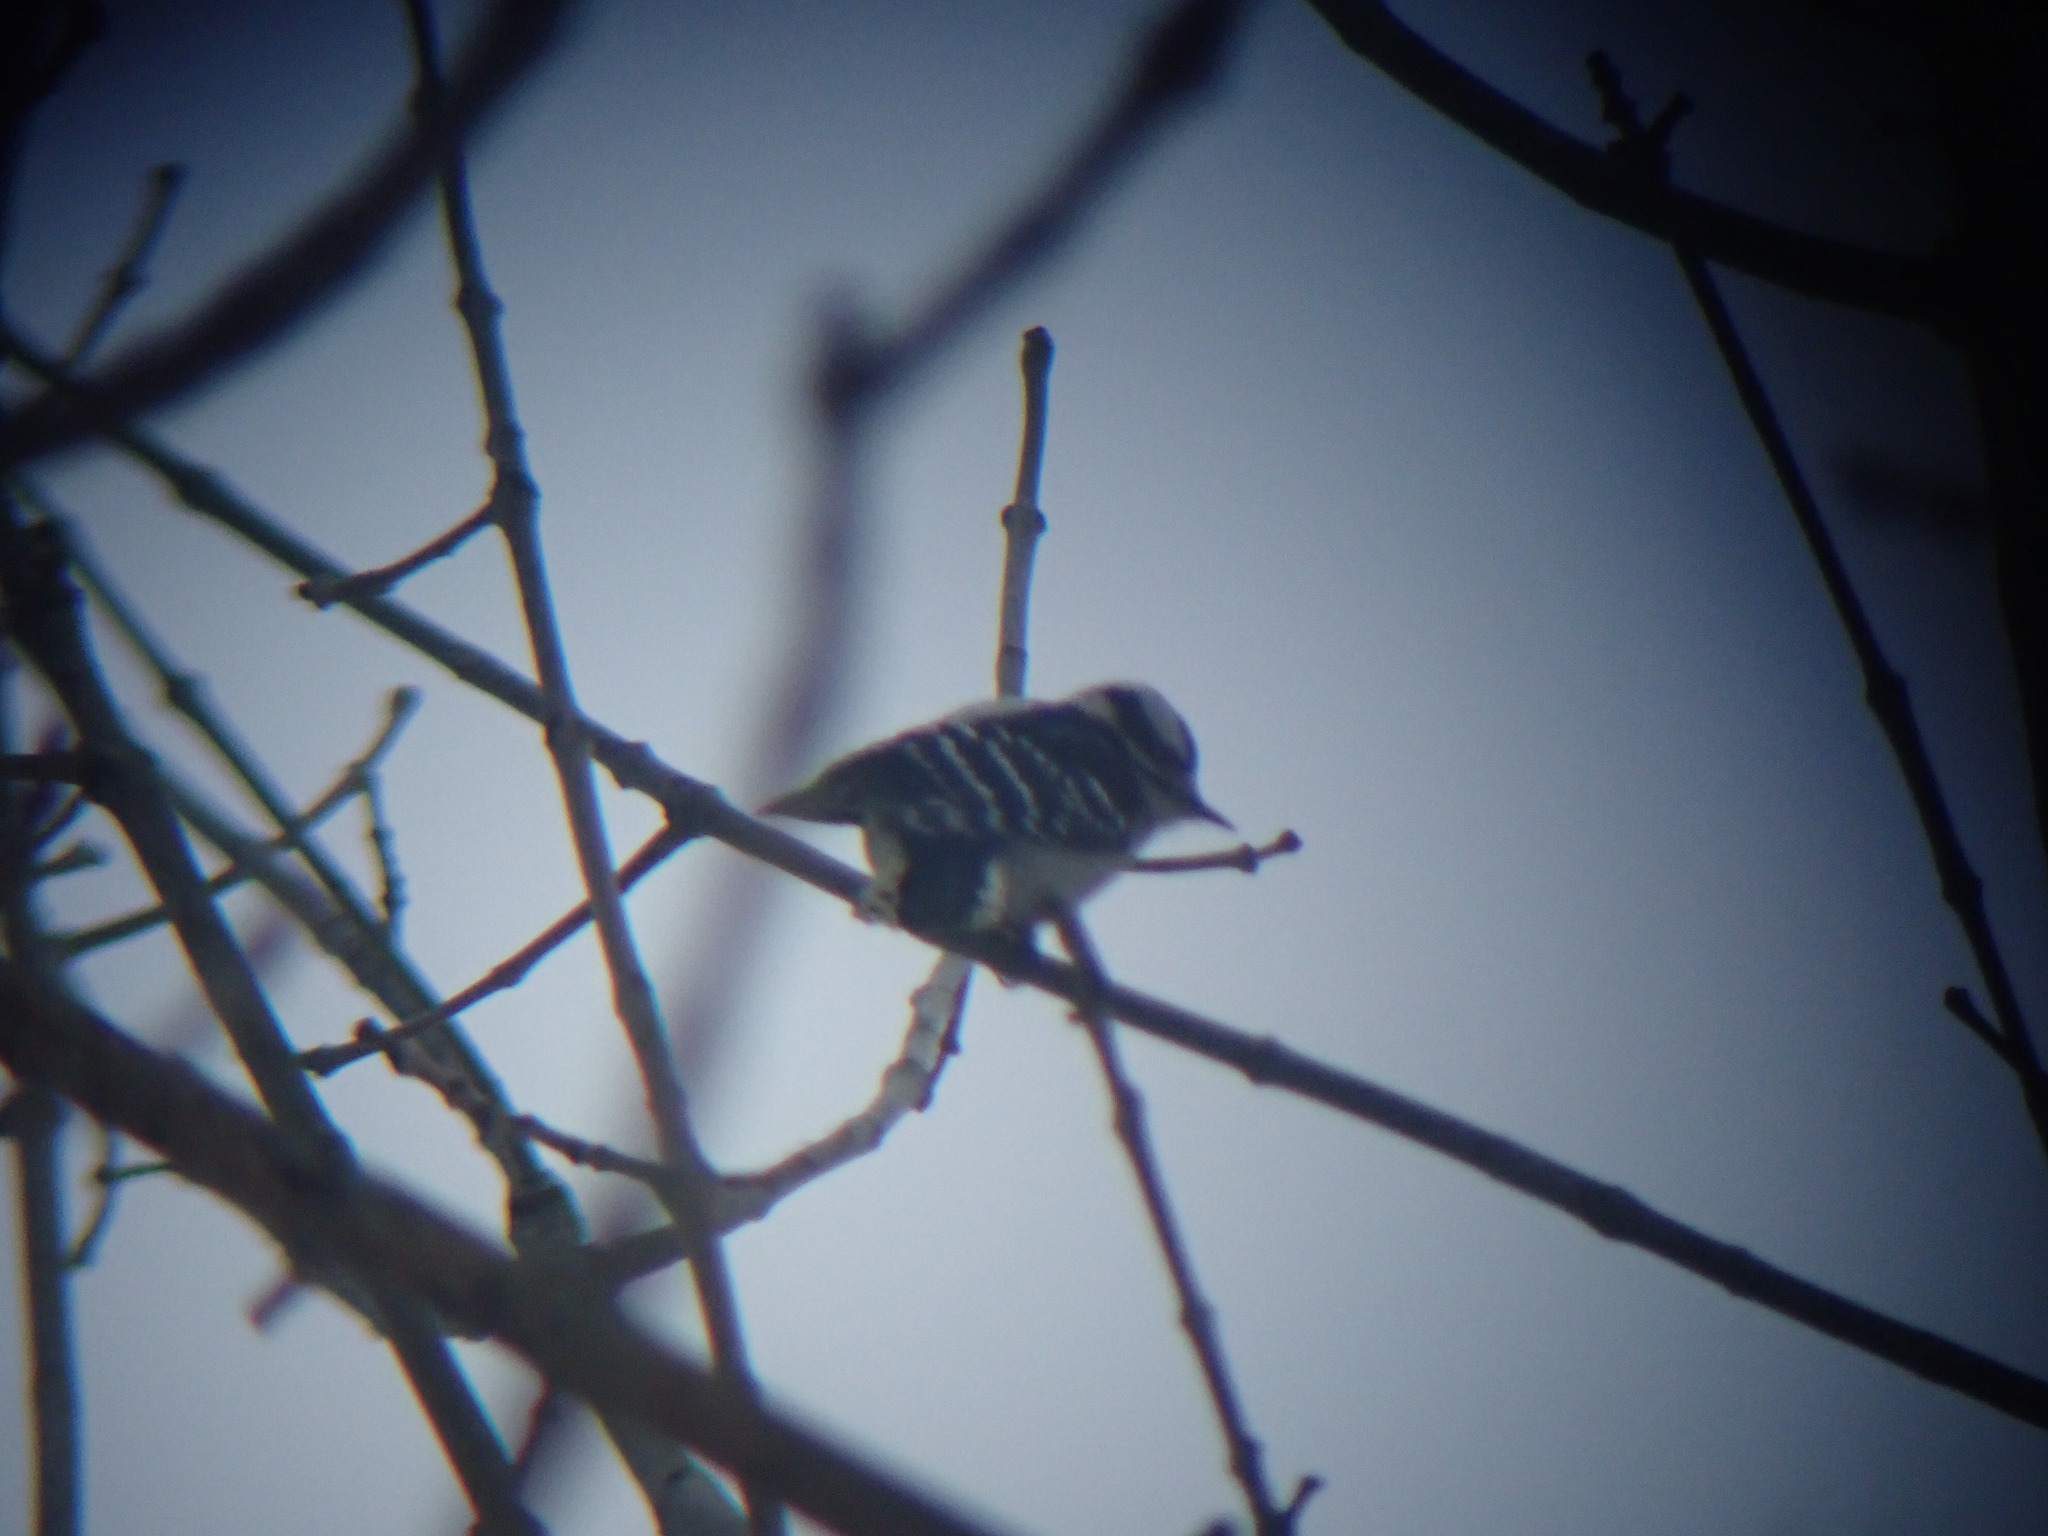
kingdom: Animalia
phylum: Chordata
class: Aves
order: Piciformes
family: Picidae
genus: Dryobates
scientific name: Dryobates pubescens
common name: Downy woodpecker
